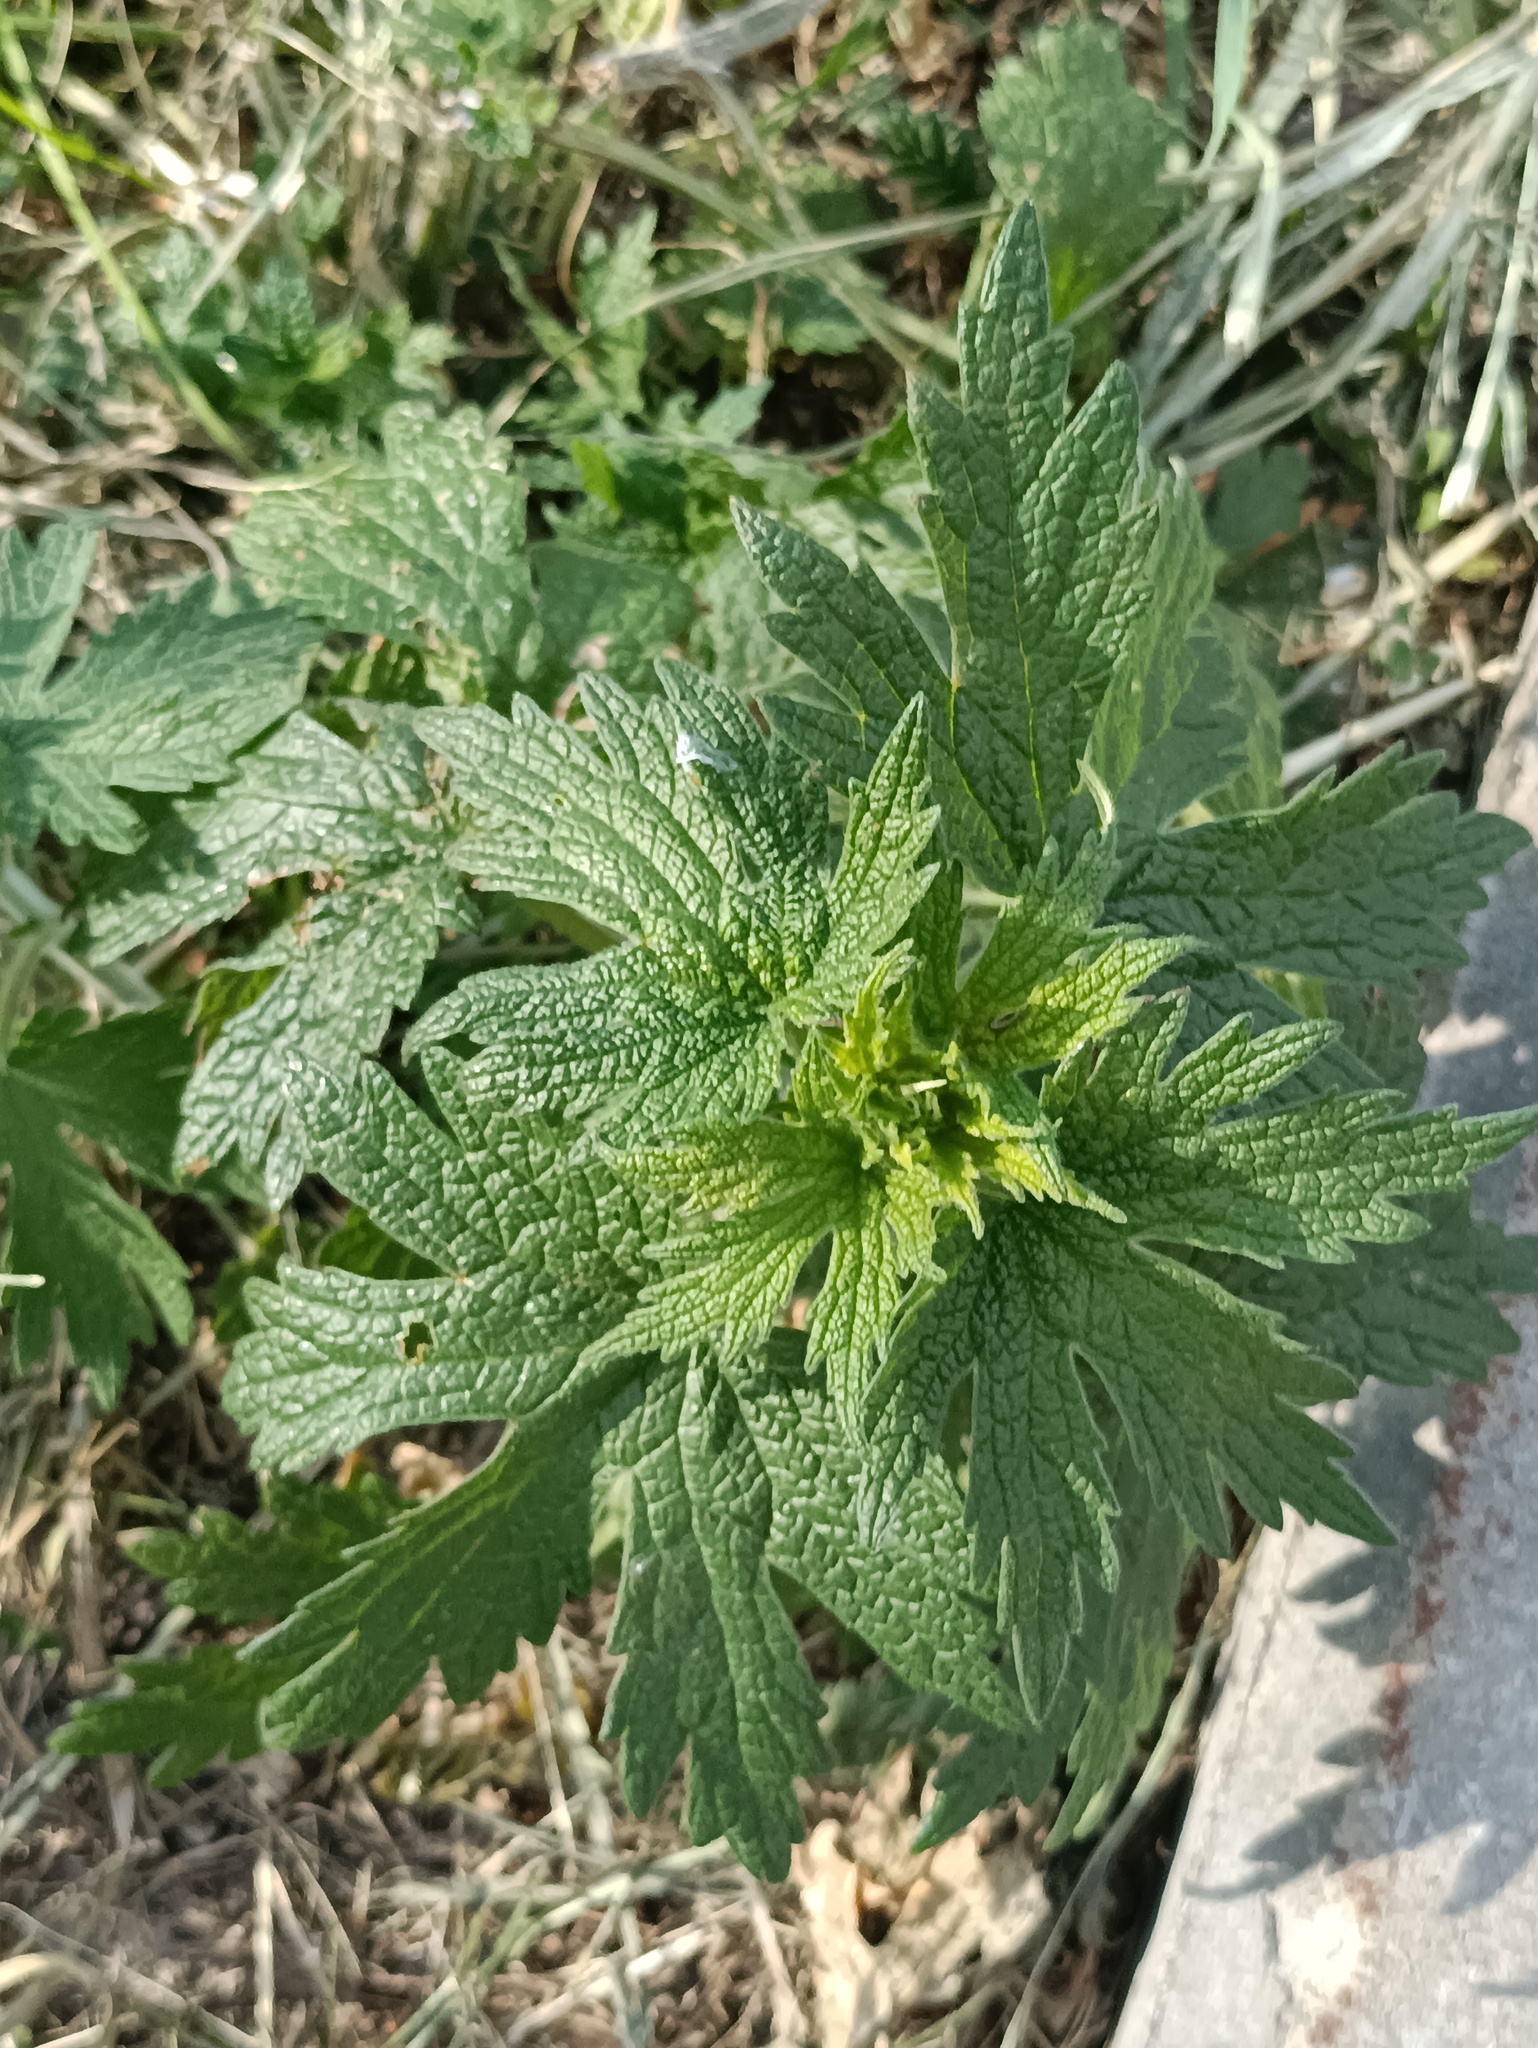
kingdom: Plantae
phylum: Tracheophyta
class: Magnoliopsida
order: Lamiales
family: Lamiaceae
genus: Leonurus
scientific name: Leonurus quinquelobatus
